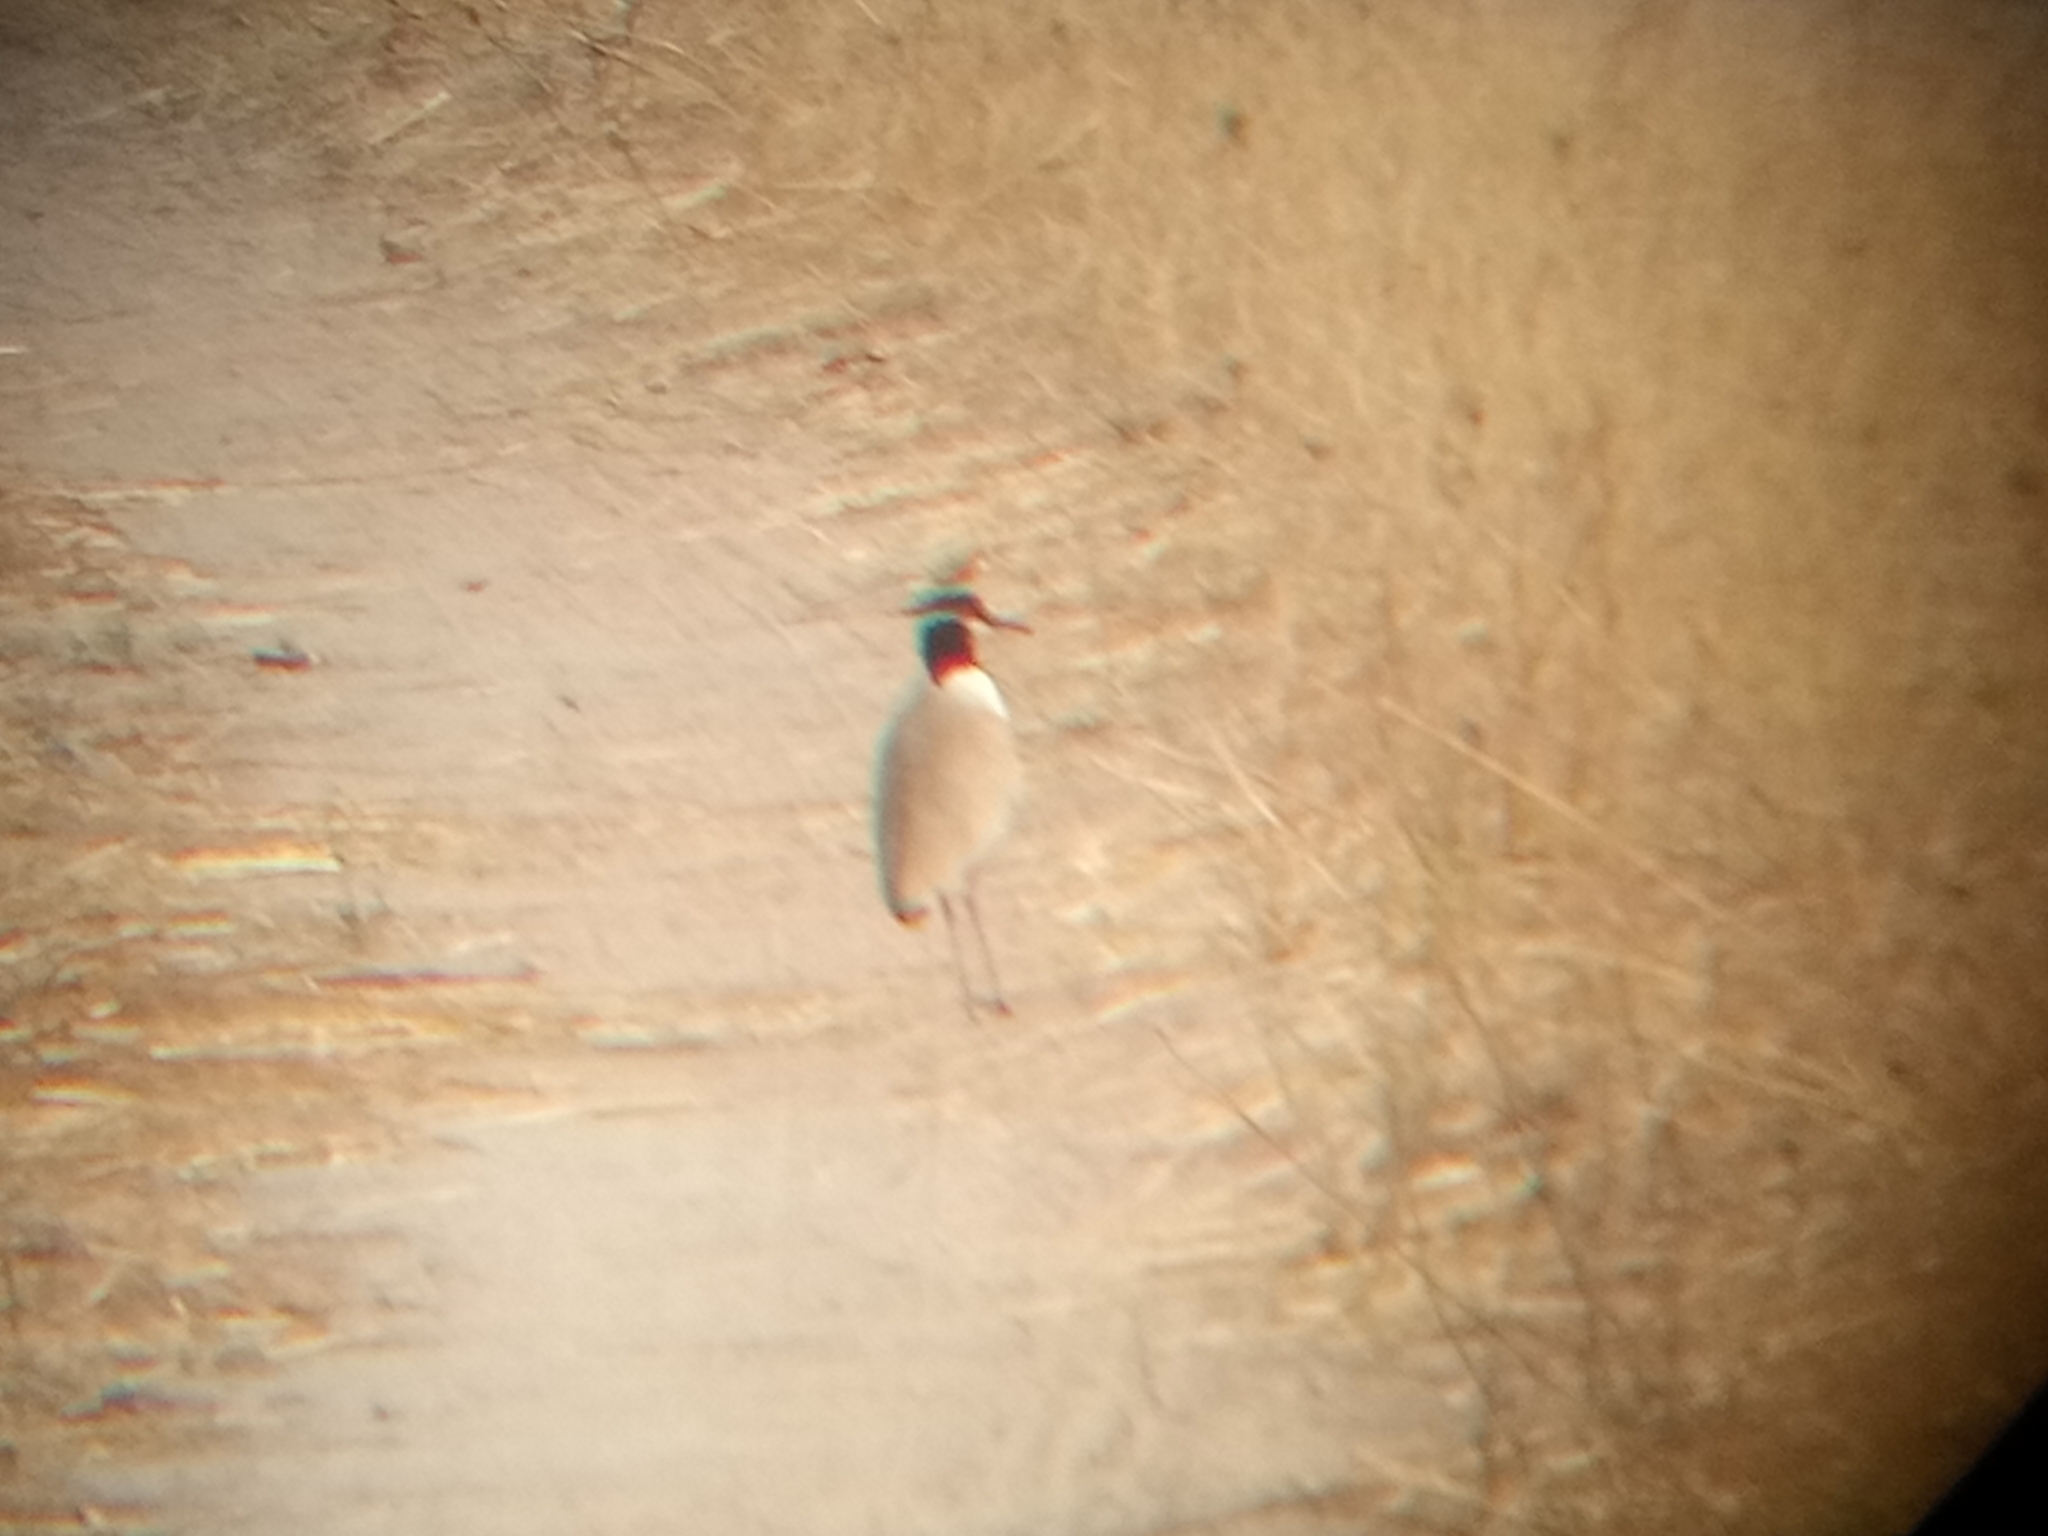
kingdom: Animalia
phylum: Chordata
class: Aves
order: Charadriiformes
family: Charadriidae
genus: Vanellus
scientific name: Vanellus tectus
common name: Black-headed lapwing
